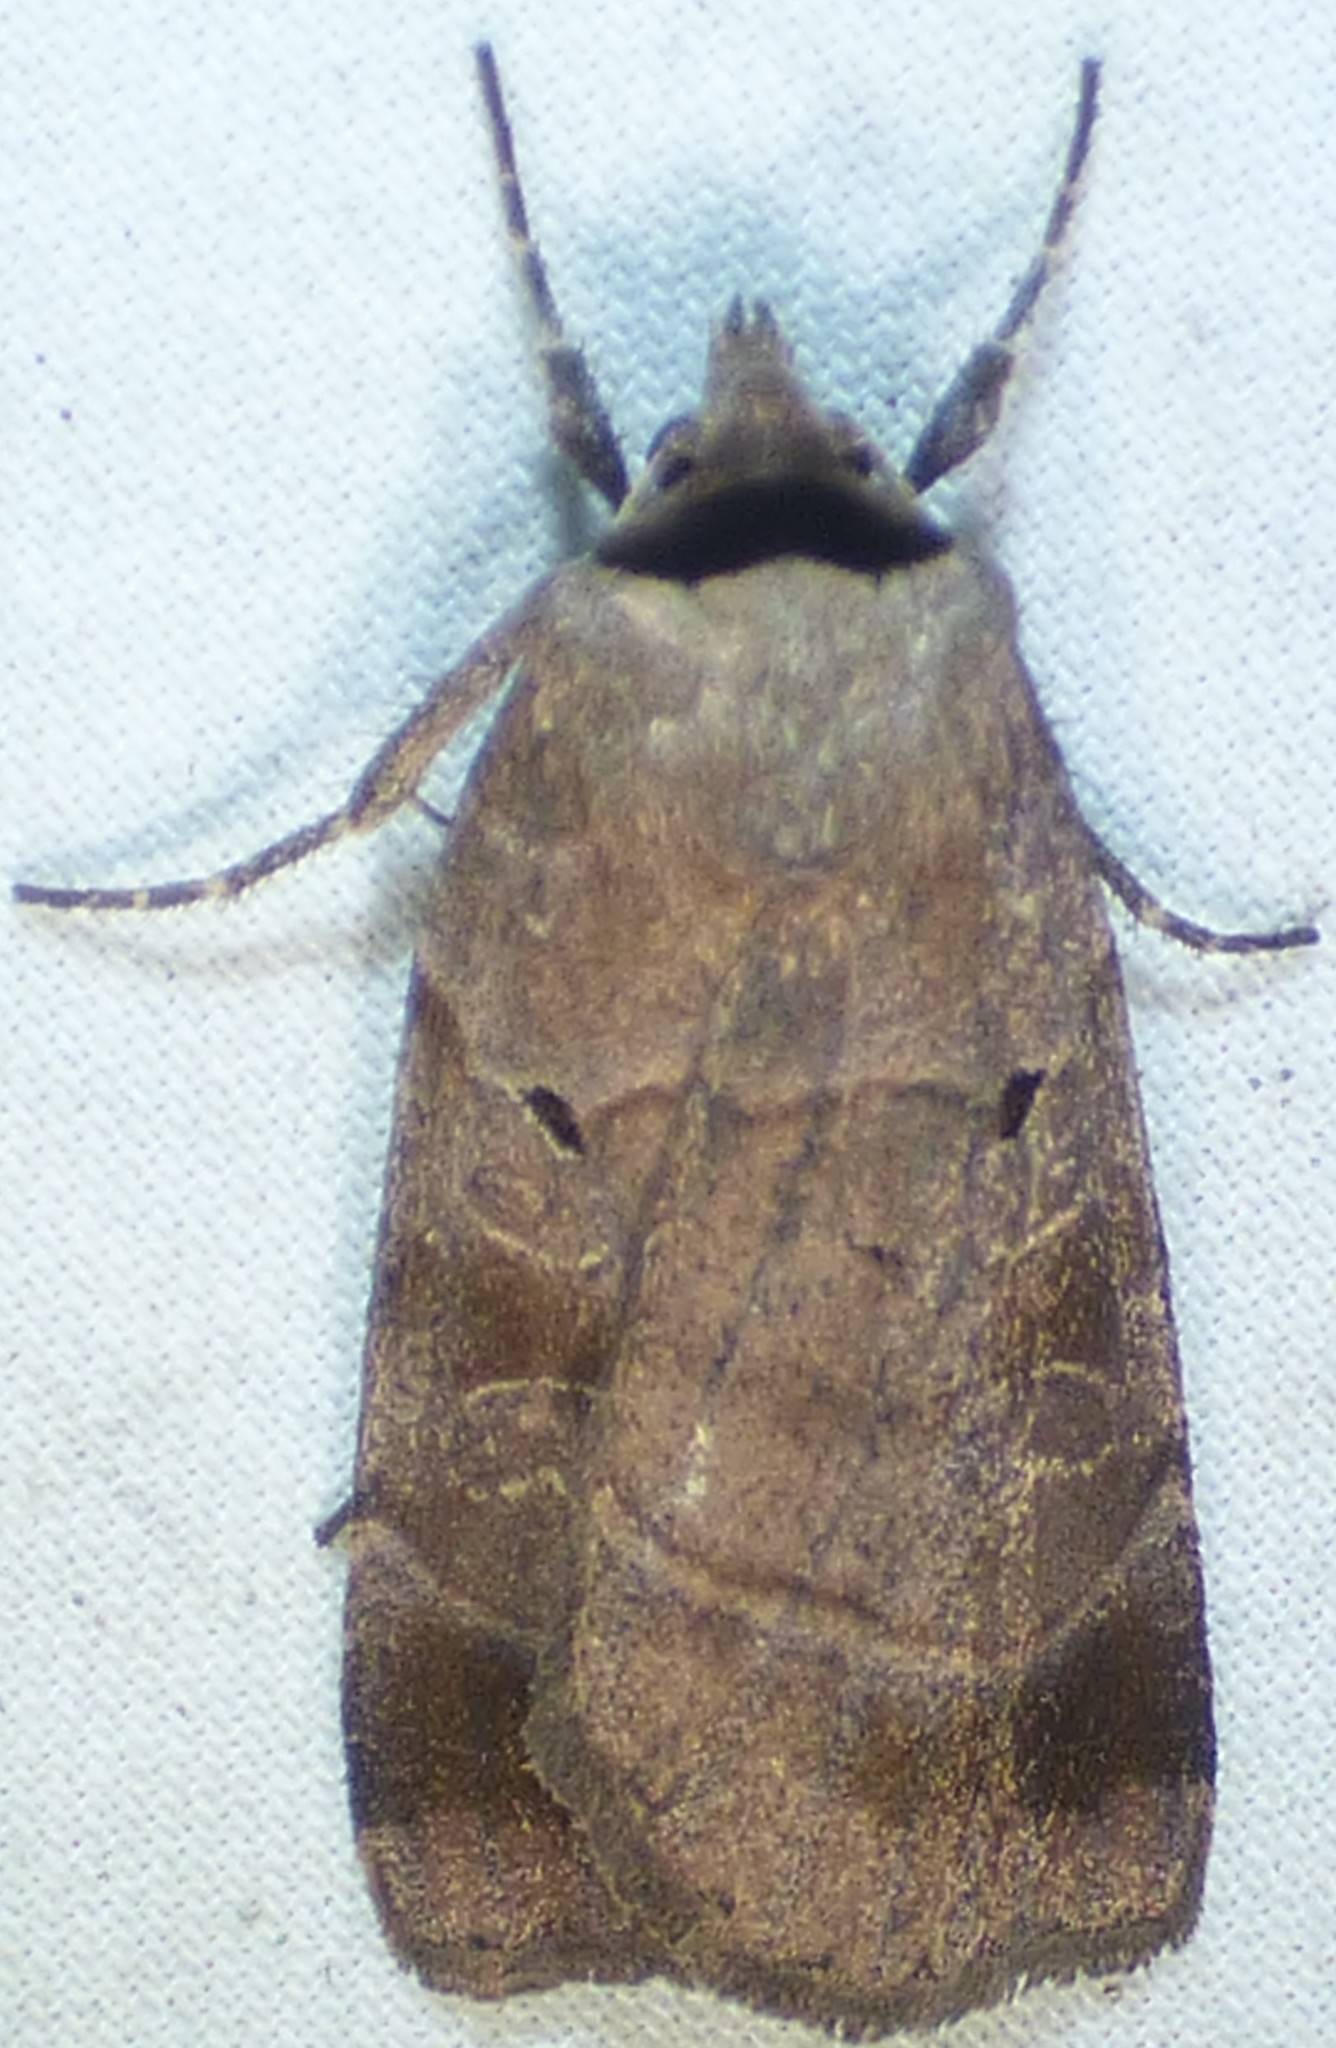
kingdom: Animalia
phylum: Arthropoda
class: Insecta
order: Lepidoptera
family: Noctuidae
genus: Agnorisma
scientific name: Agnorisma badinodis
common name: Pale-banded dart
